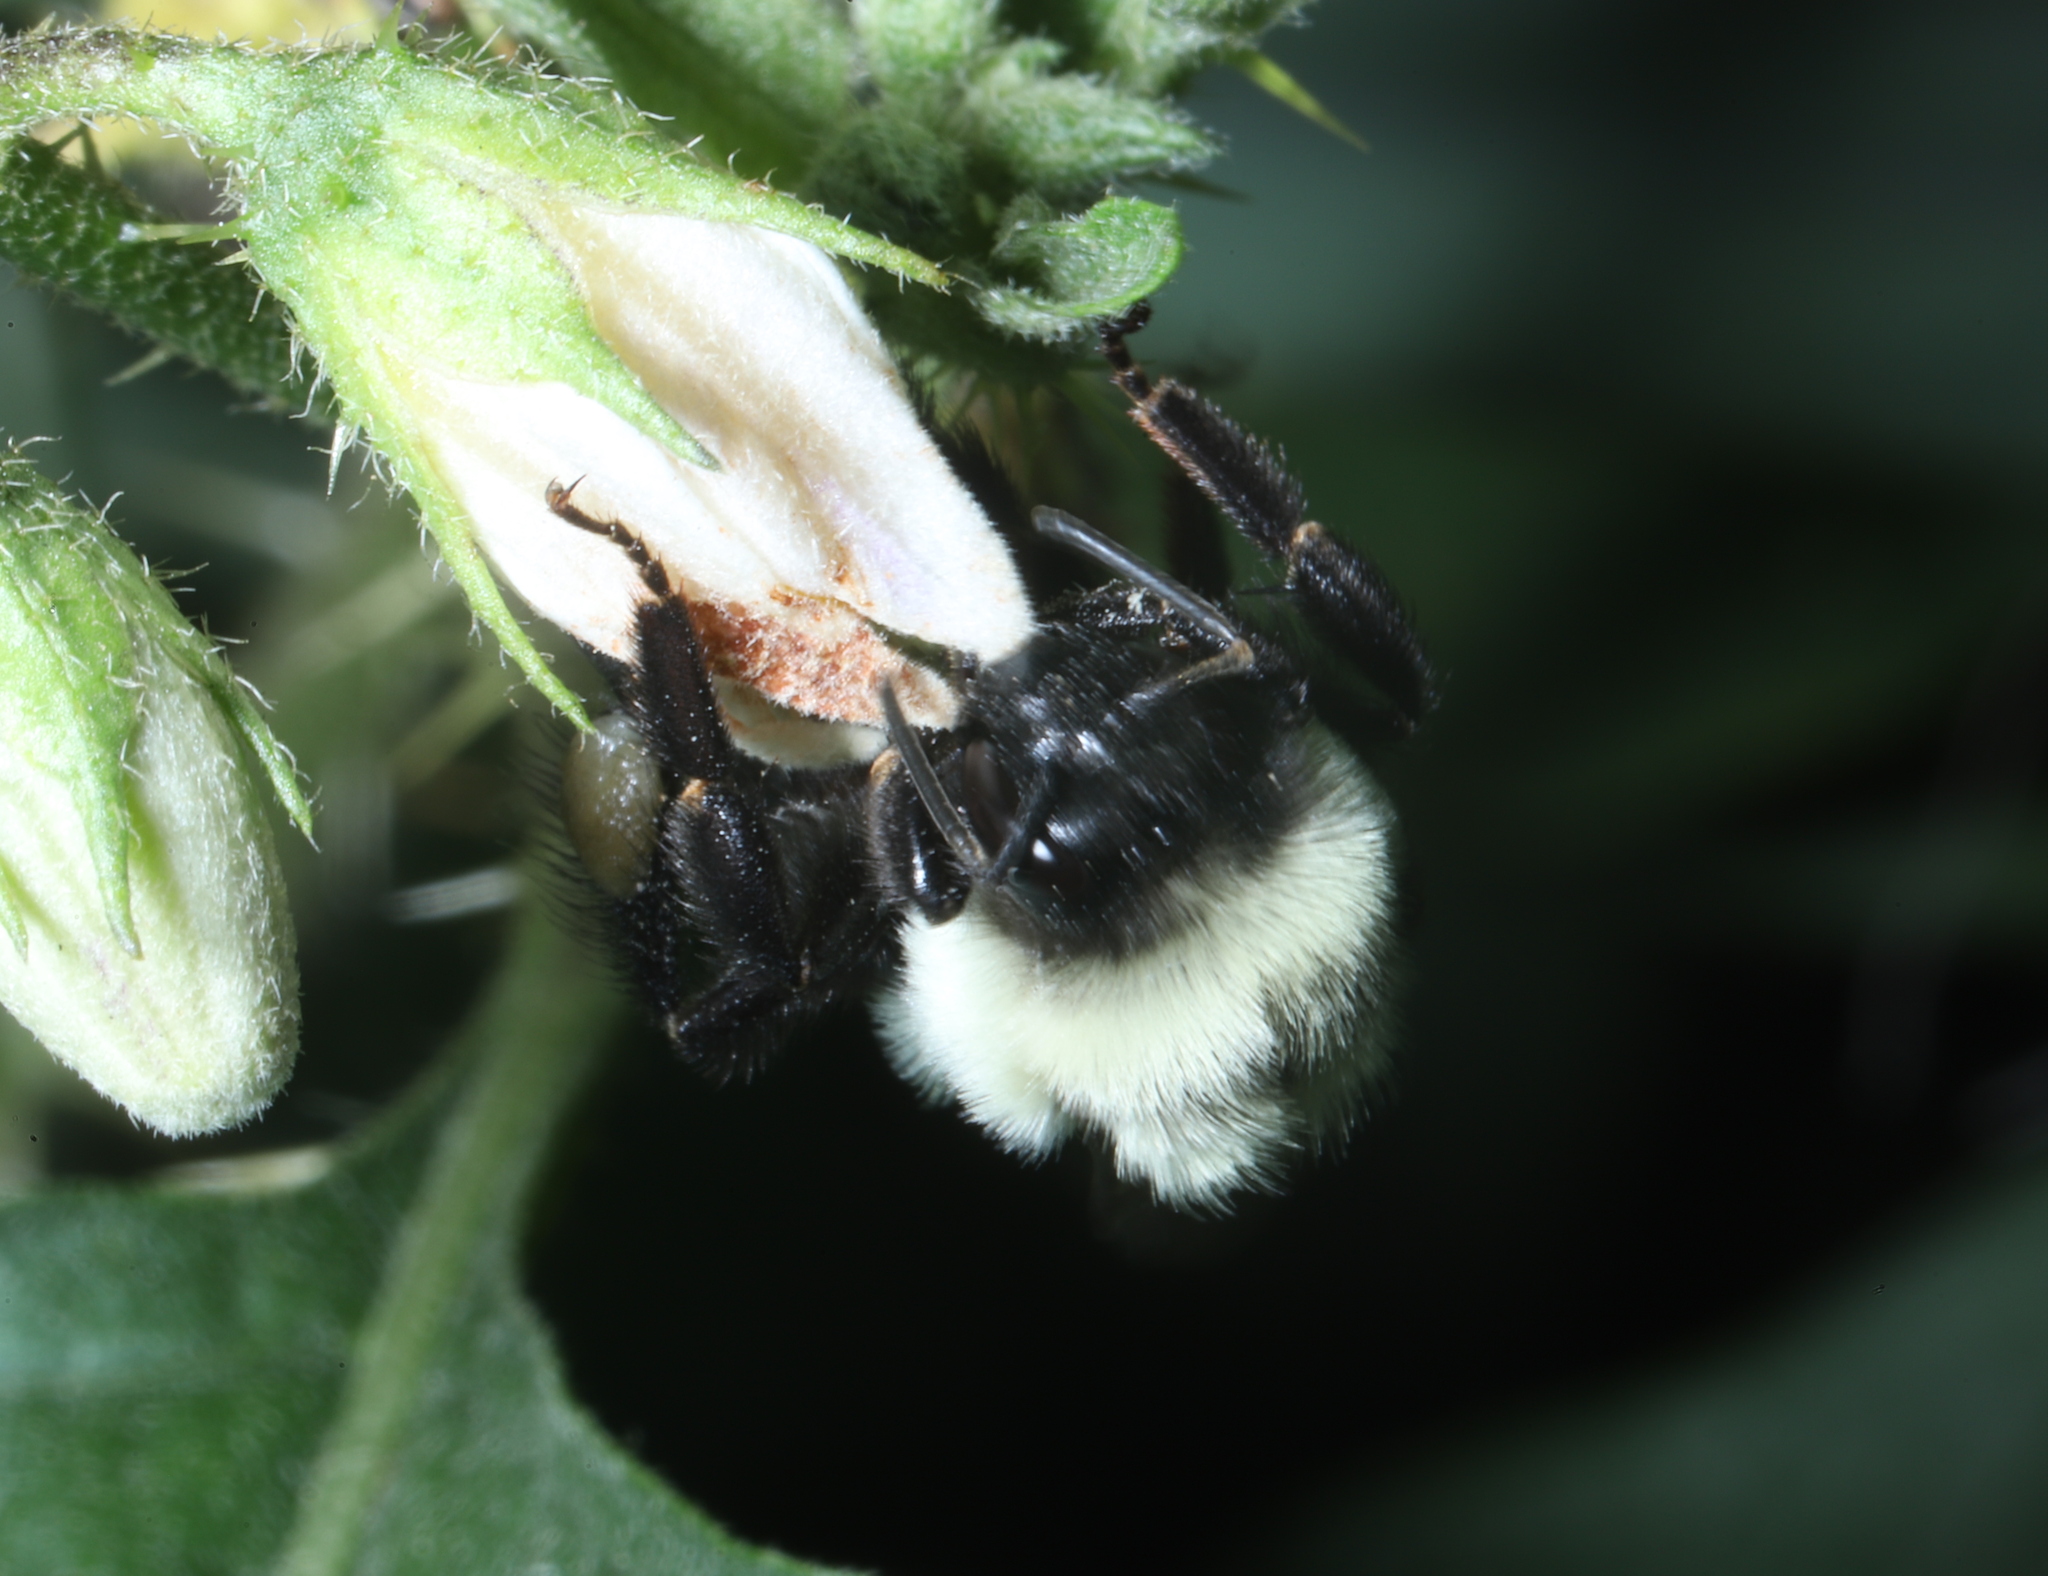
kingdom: Animalia
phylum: Arthropoda
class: Insecta
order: Hymenoptera
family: Apidae
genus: Bombus
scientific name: Bombus impatiens
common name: Common eastern bumble bee
